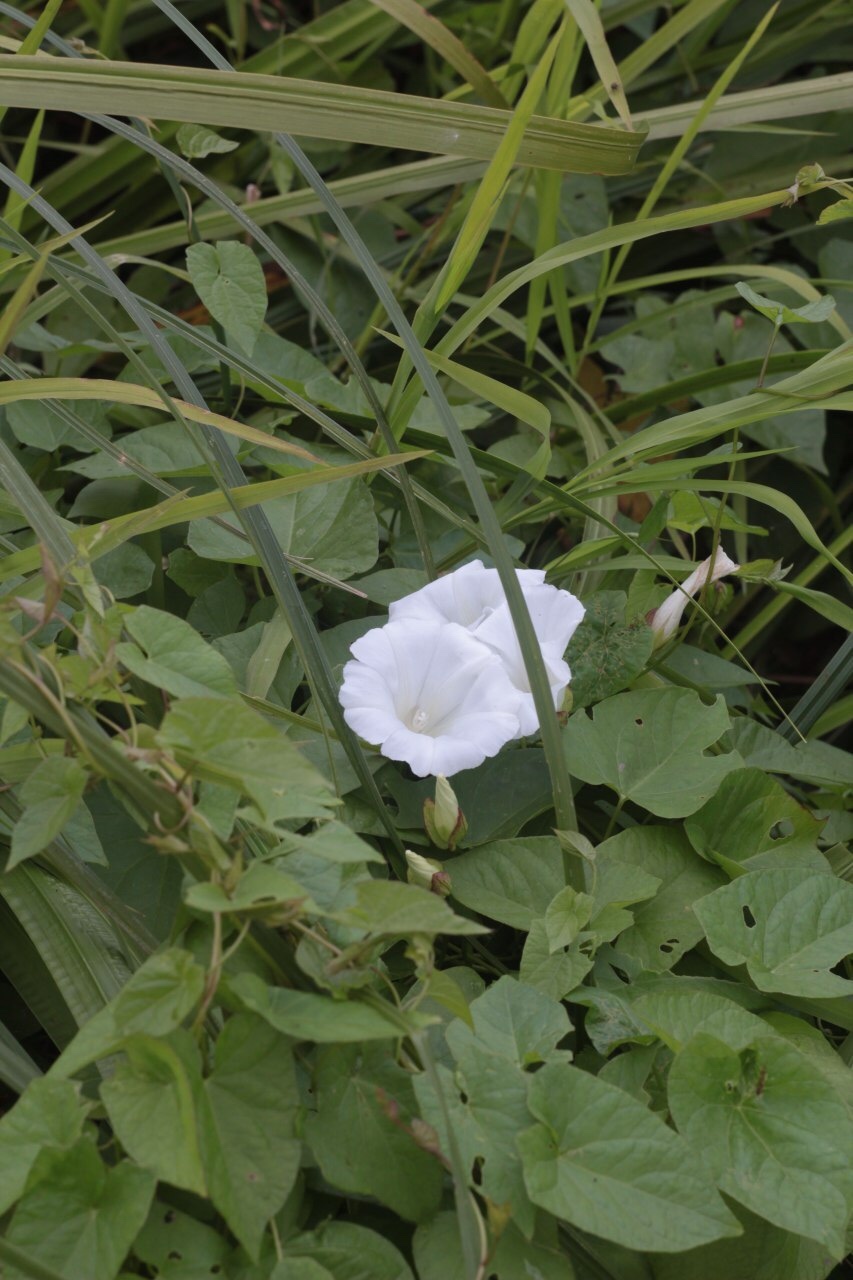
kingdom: Plantae
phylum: Tracheophyta
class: Magnoliopsida
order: Solanales
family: Convolvulaceae
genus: Calystegia
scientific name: Calystegia sepium
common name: Hedge bindweed
